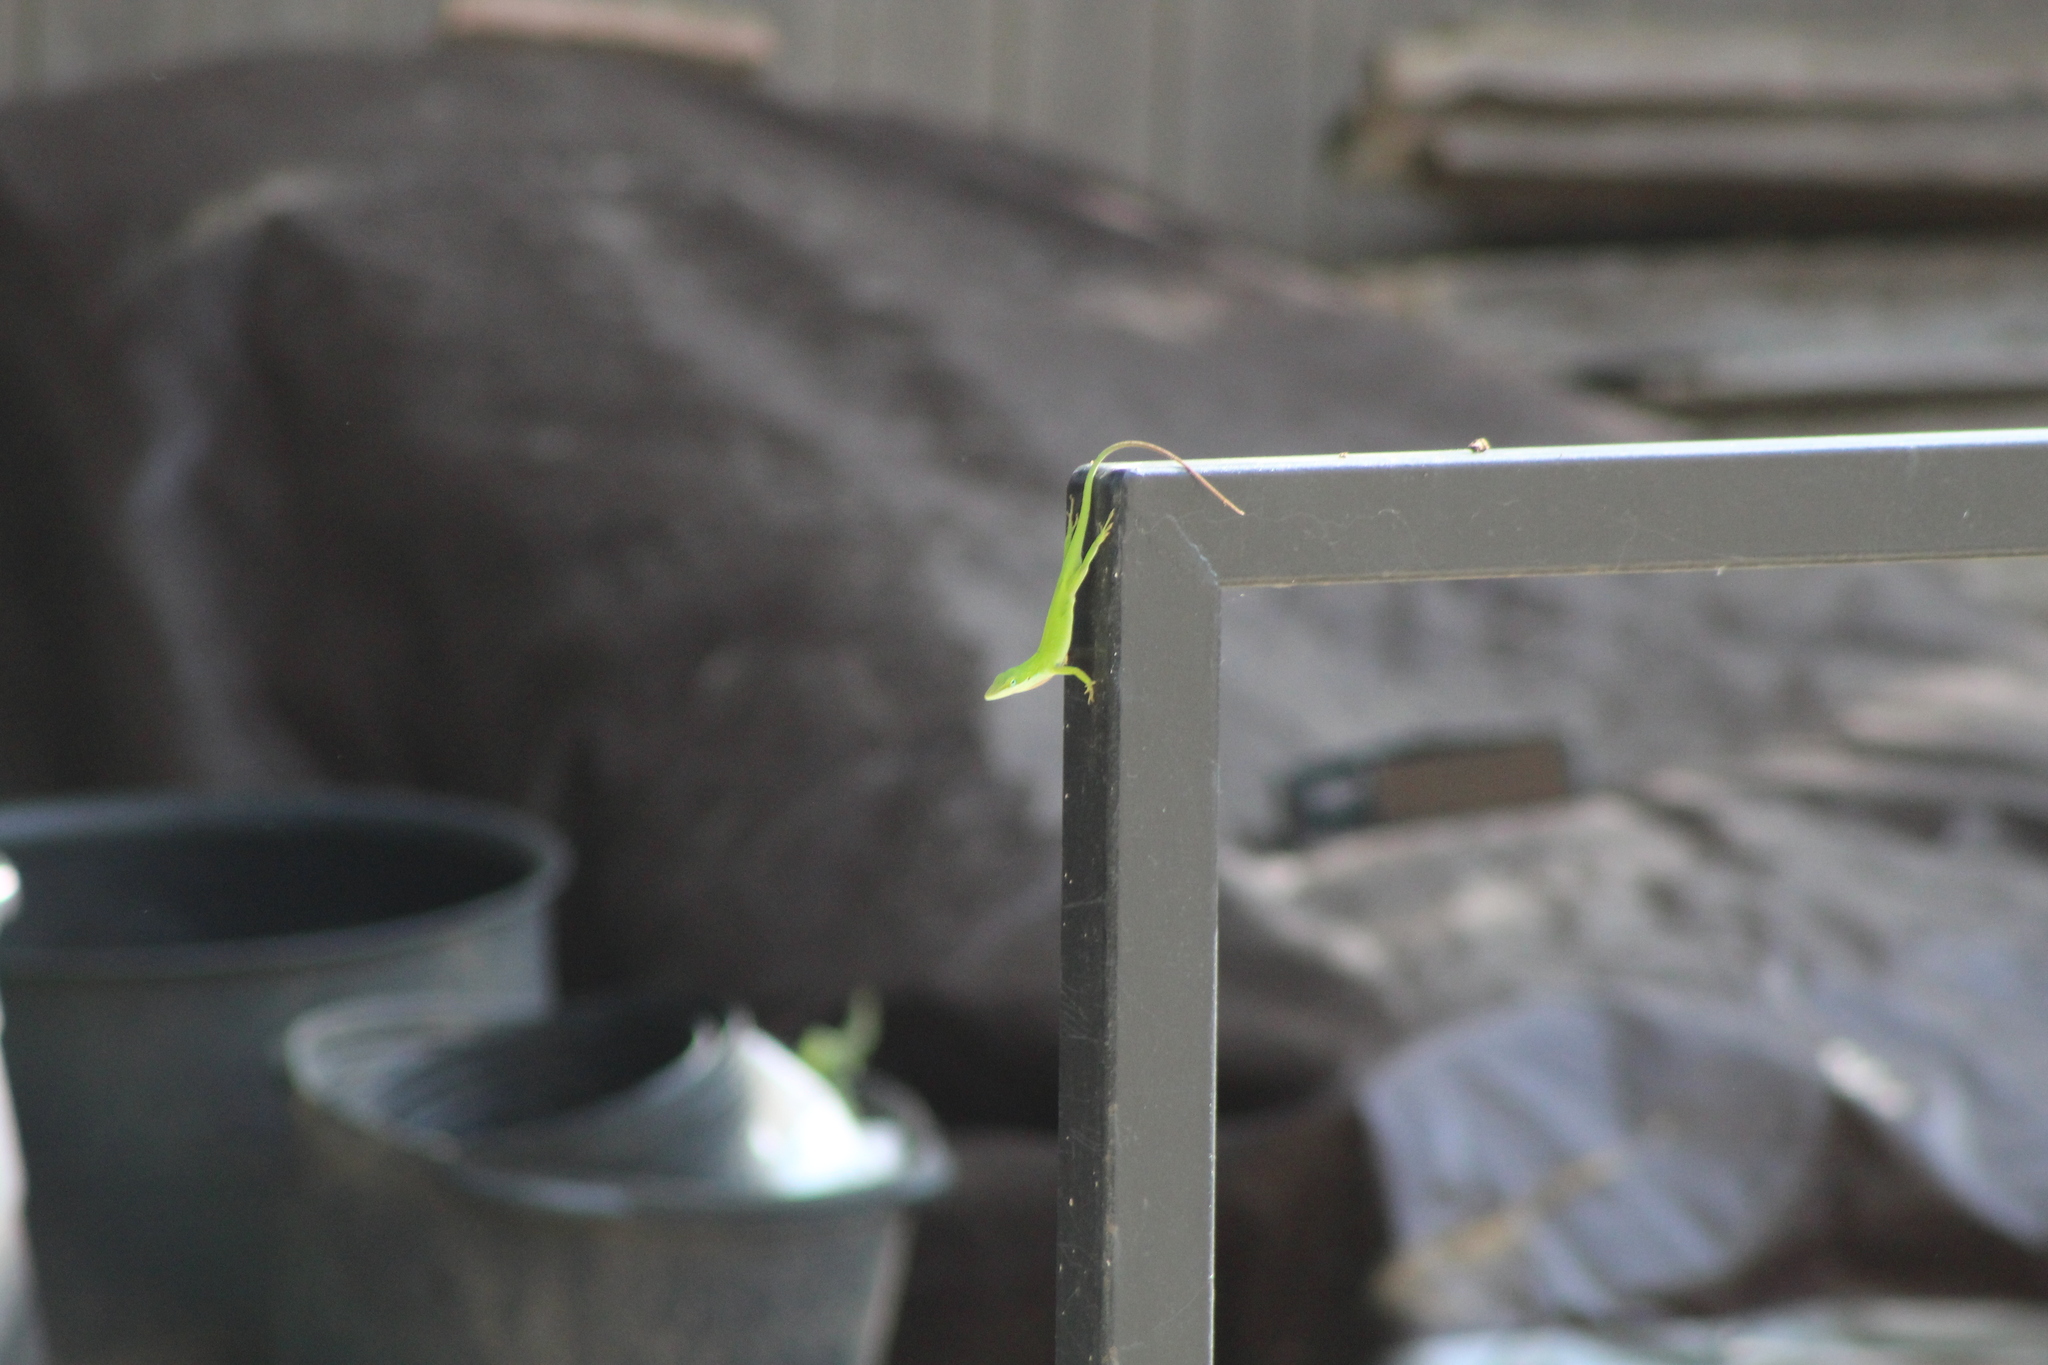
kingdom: Animalia
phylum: Chordata
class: Squamata
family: Dactyloidae
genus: Anolis
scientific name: Anolis carolinensis
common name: Green anole
